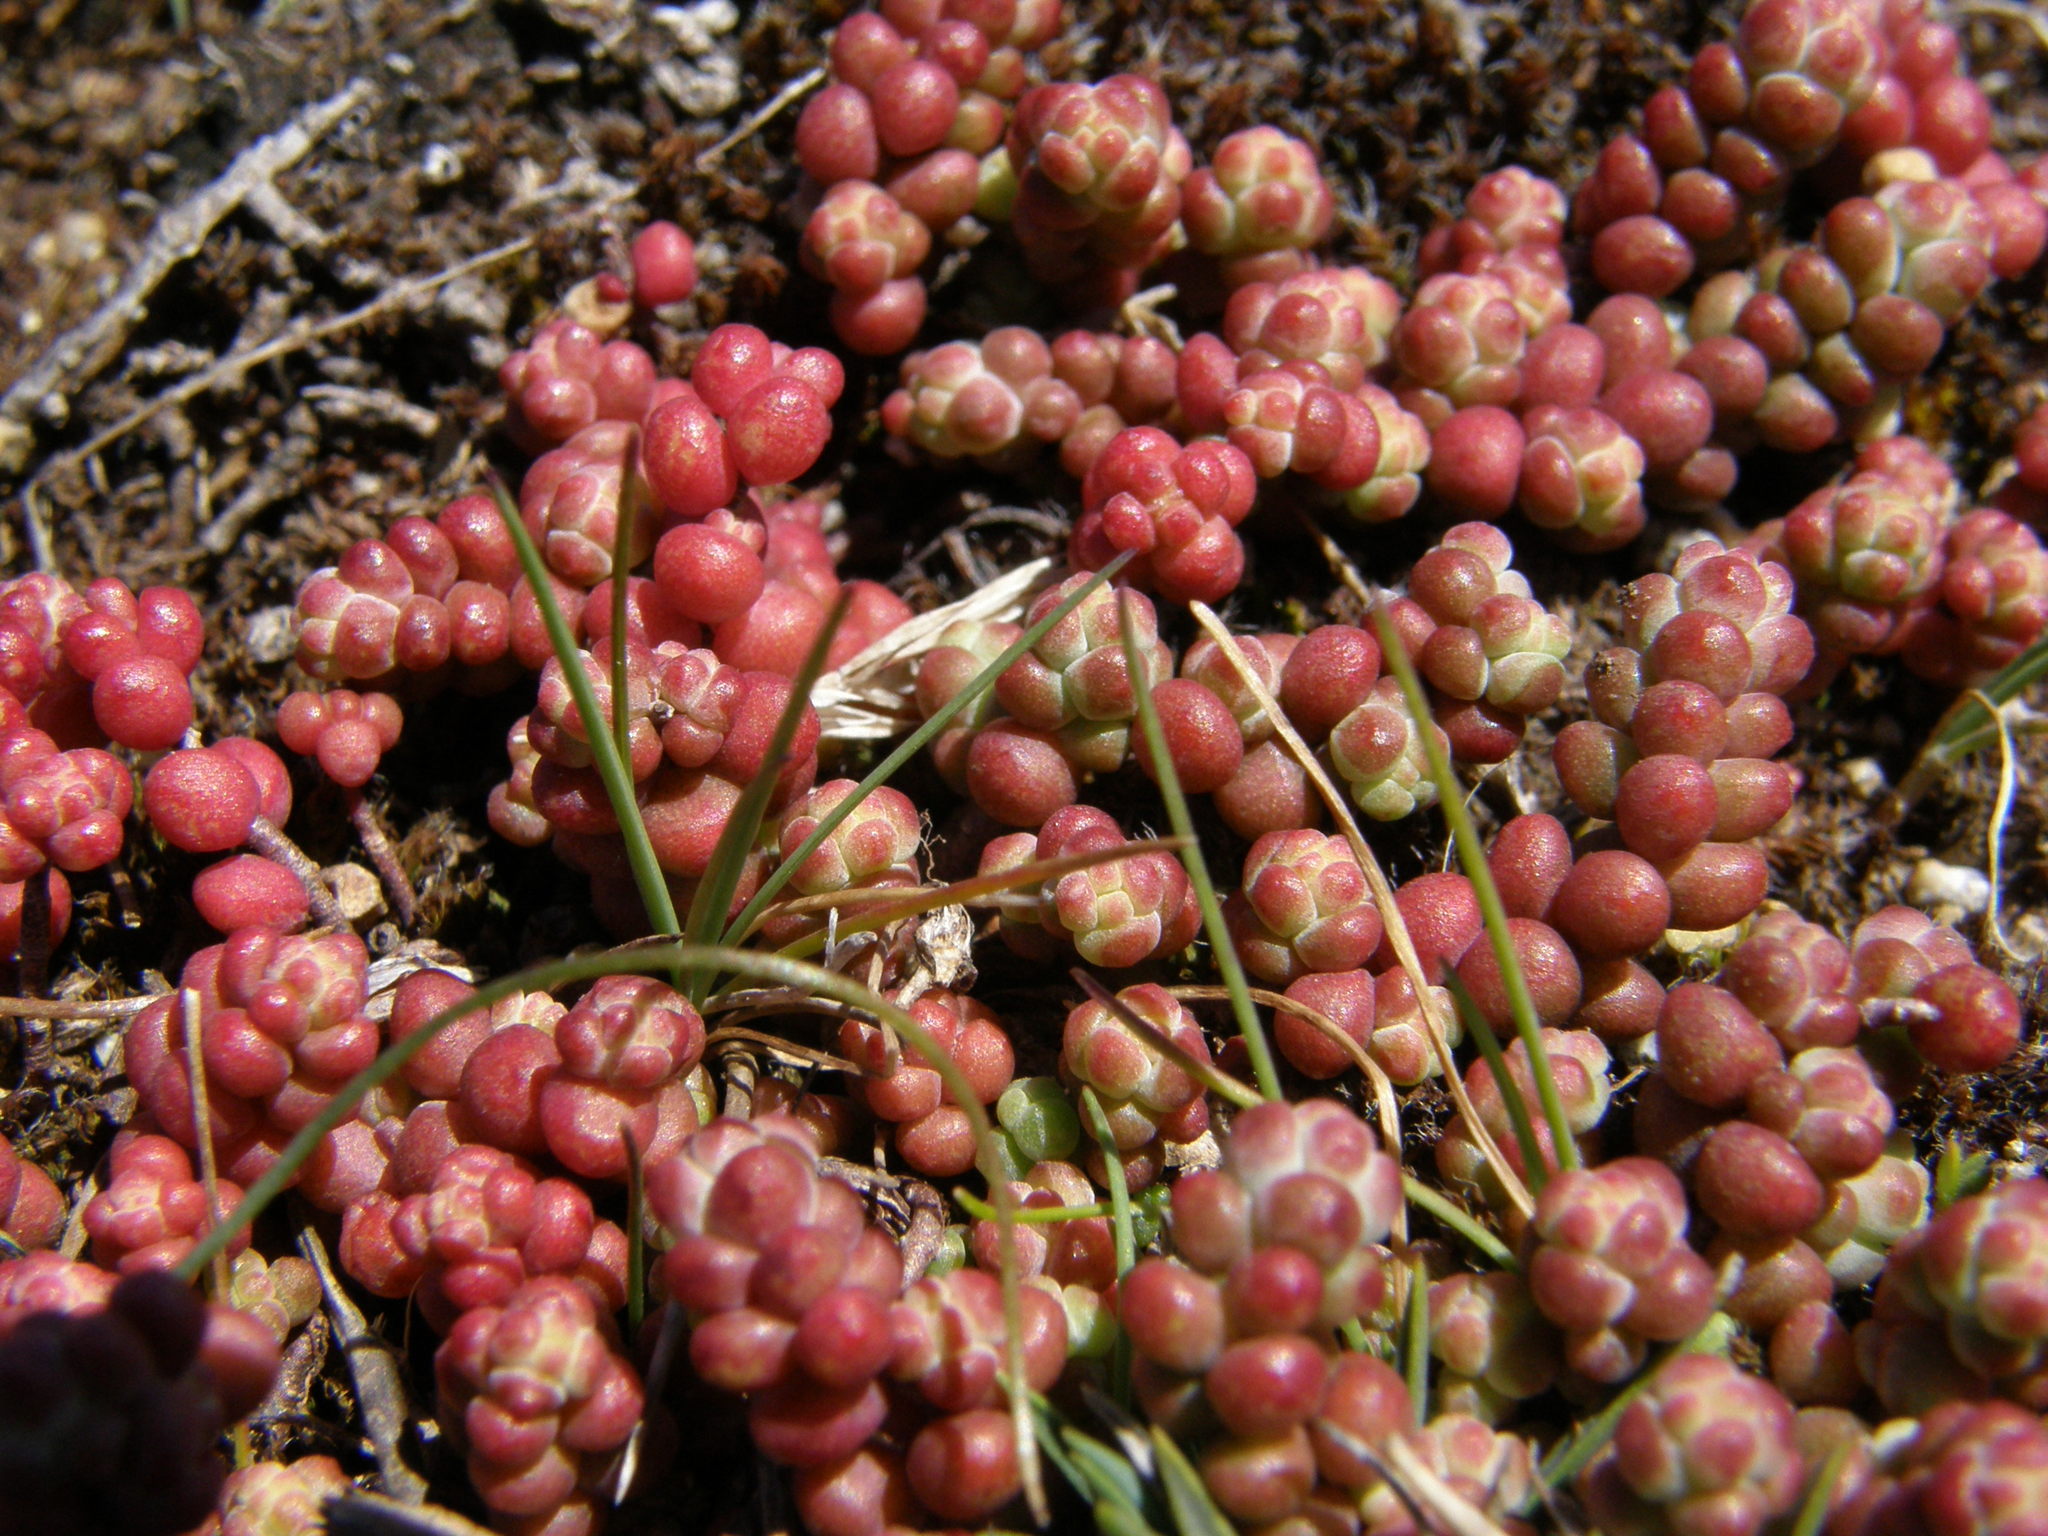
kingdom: Plantae
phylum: Tracheophyta
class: Magnoliopsida
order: Saxifragales
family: Crassulaceae
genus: Sedum
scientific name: Sedum brevifolium
